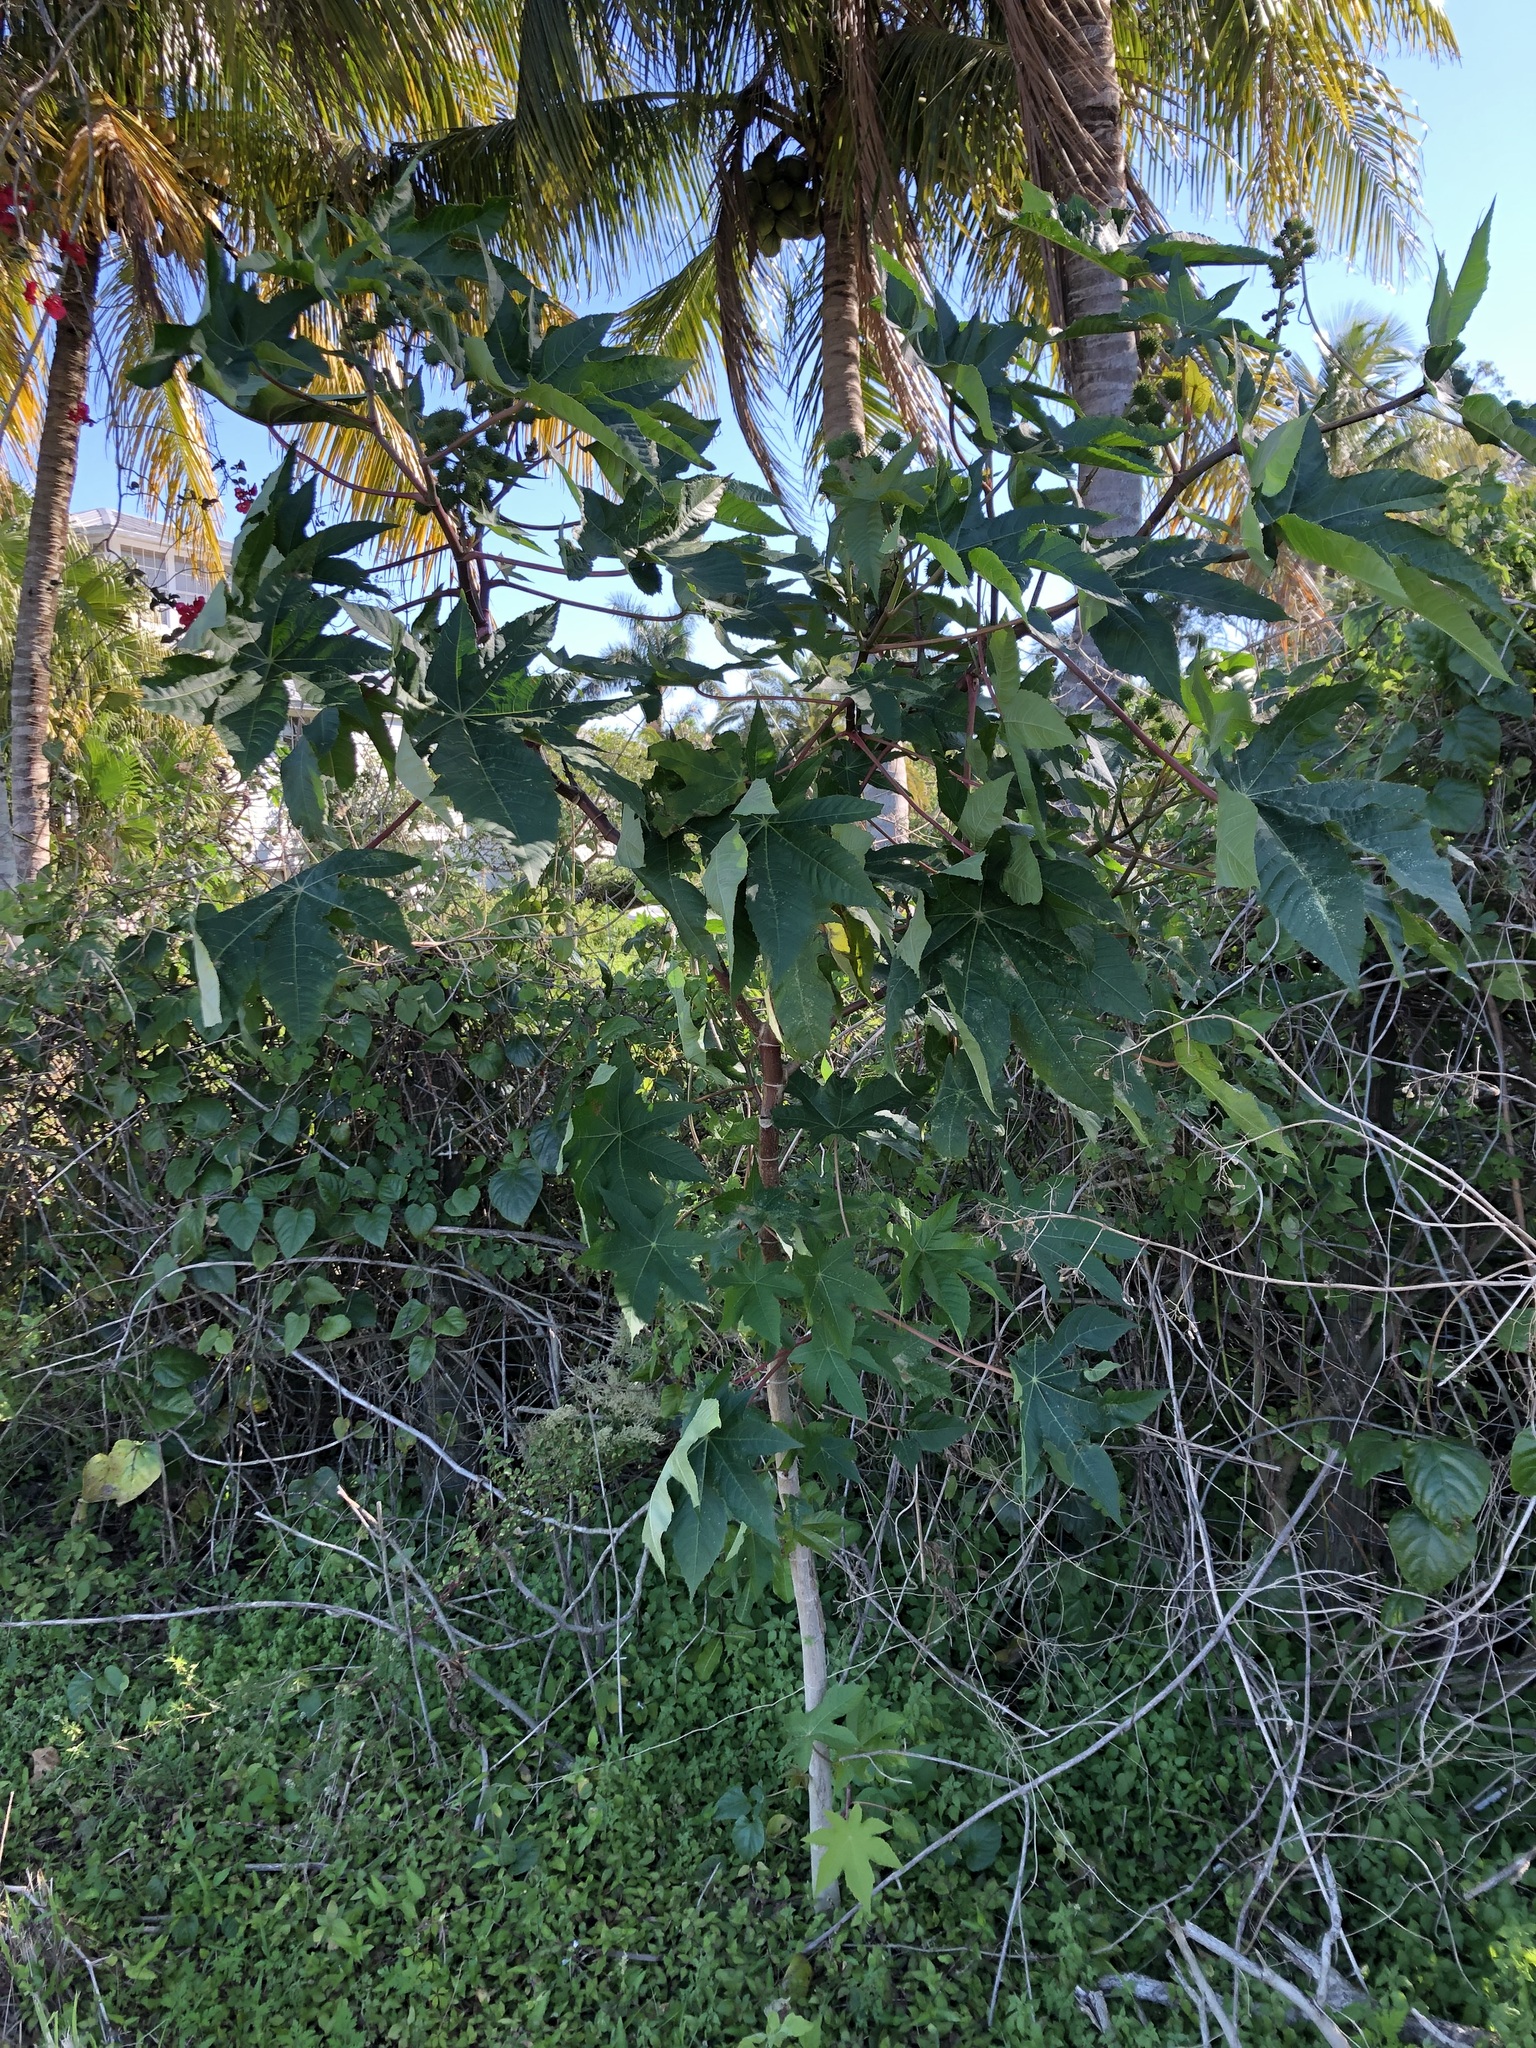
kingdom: Plantae
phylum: Tracheophyta
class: Magnoliopsida
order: Malpighiales
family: Euphorbiaceae
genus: Ricinus
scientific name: Ricinus communis
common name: Castor-oil-plant
